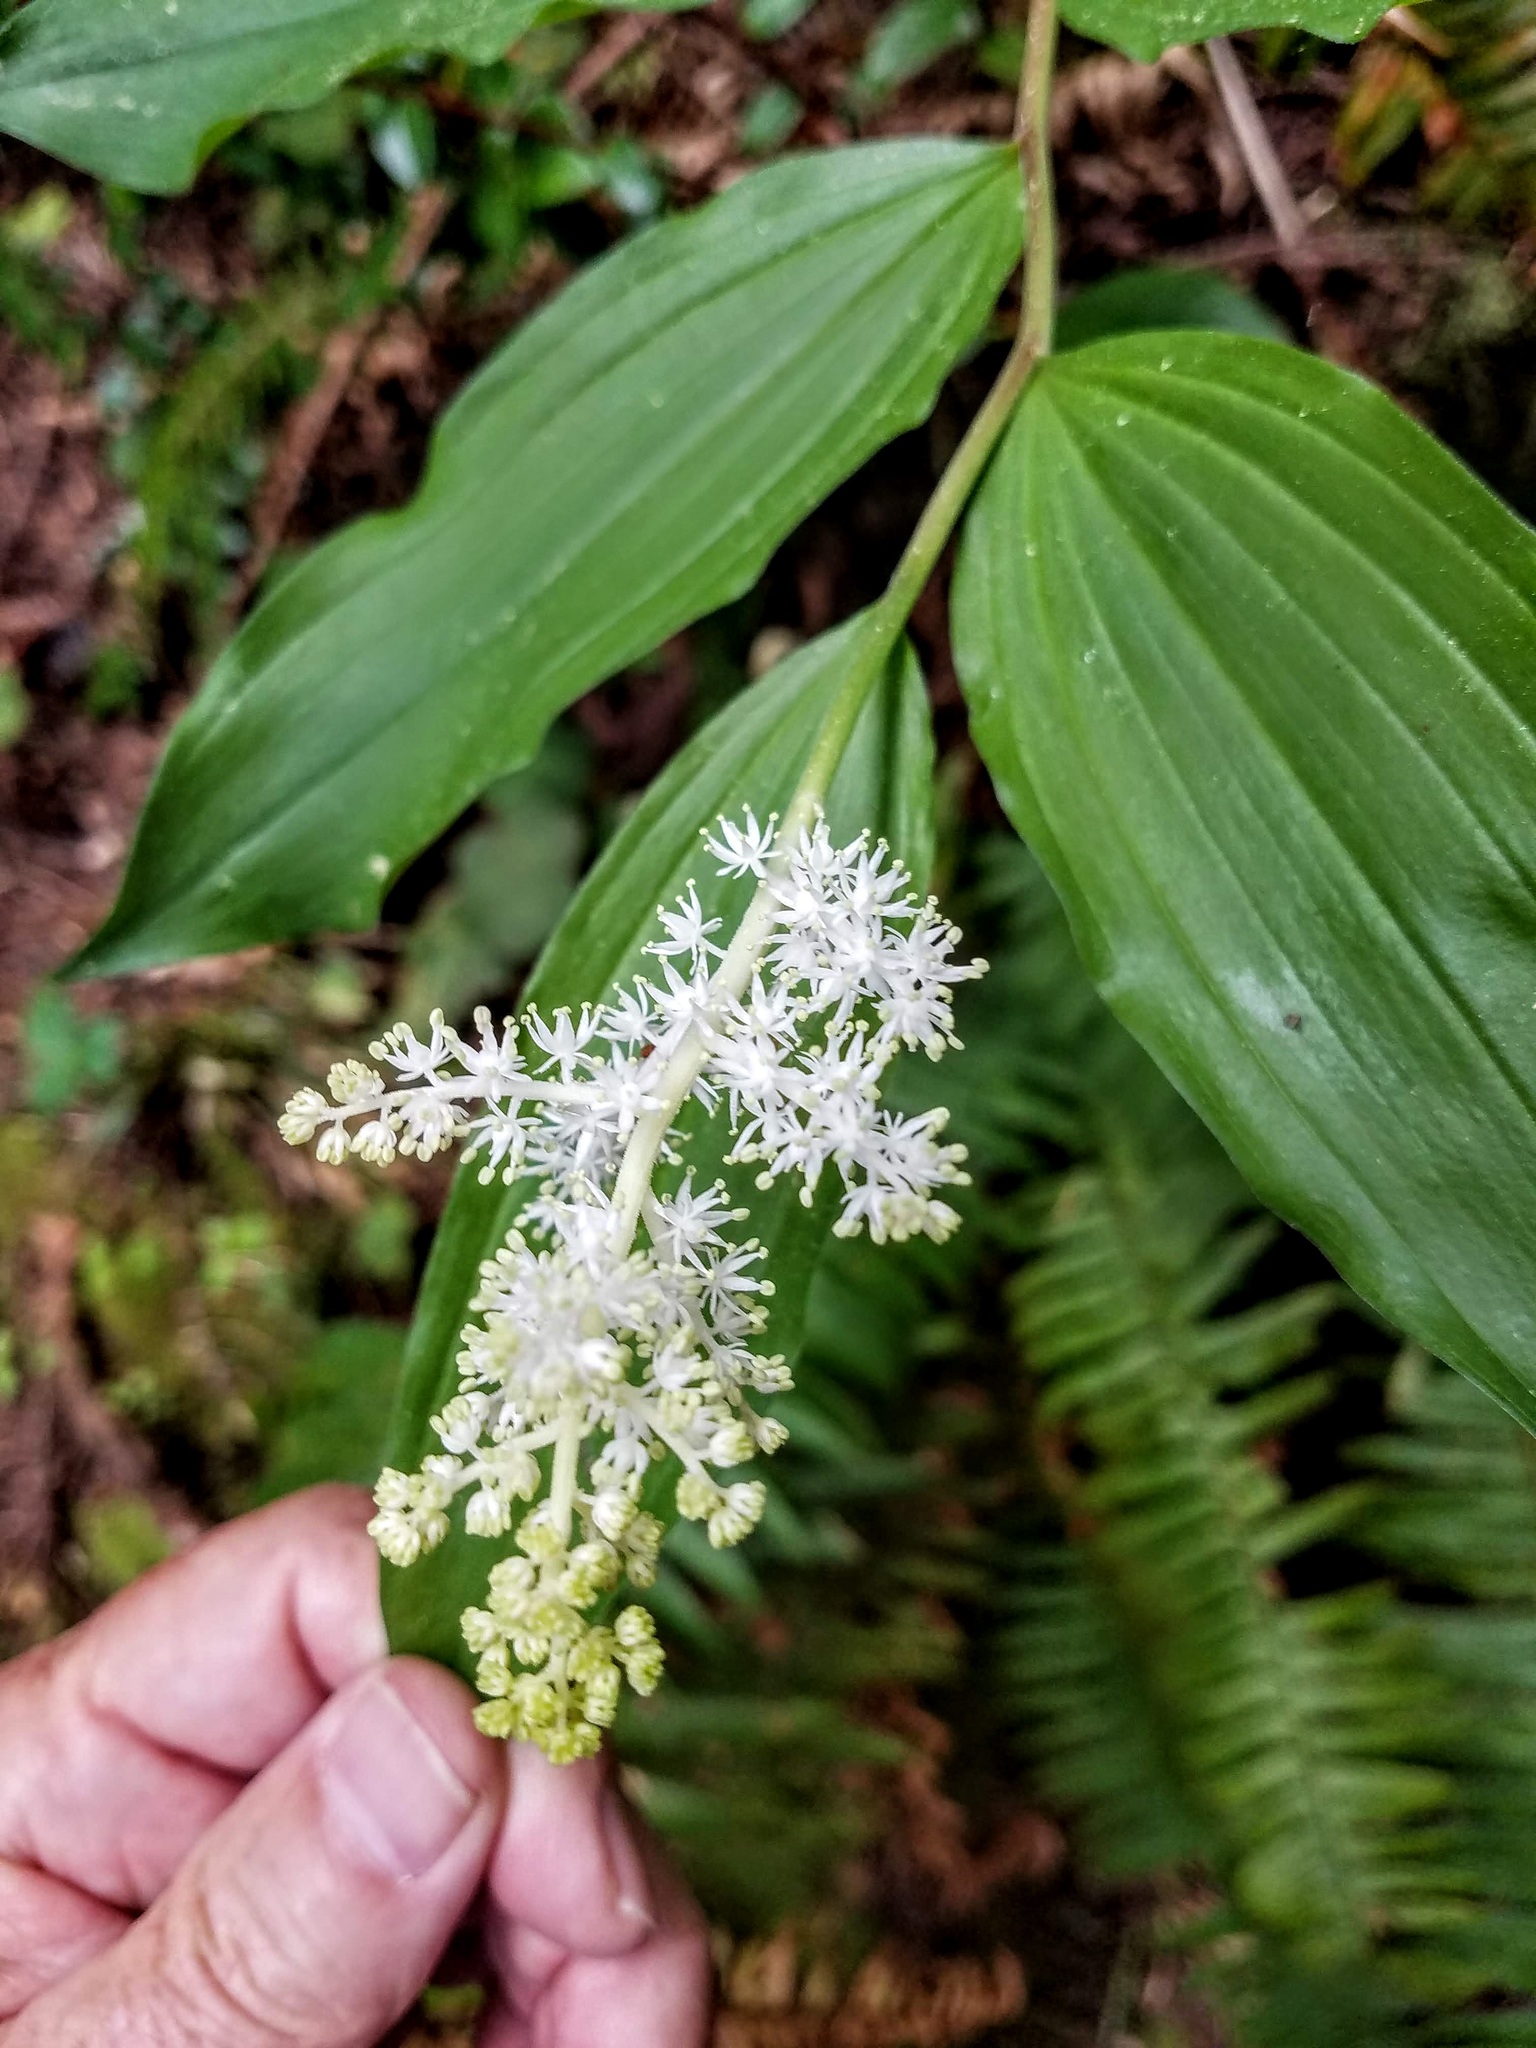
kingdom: Plantae
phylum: Tracheophyta
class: Liliopsida
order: Asparagales
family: Asparagaceae
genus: Maianthemum
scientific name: Maianthemum racemosum
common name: False spikenard
